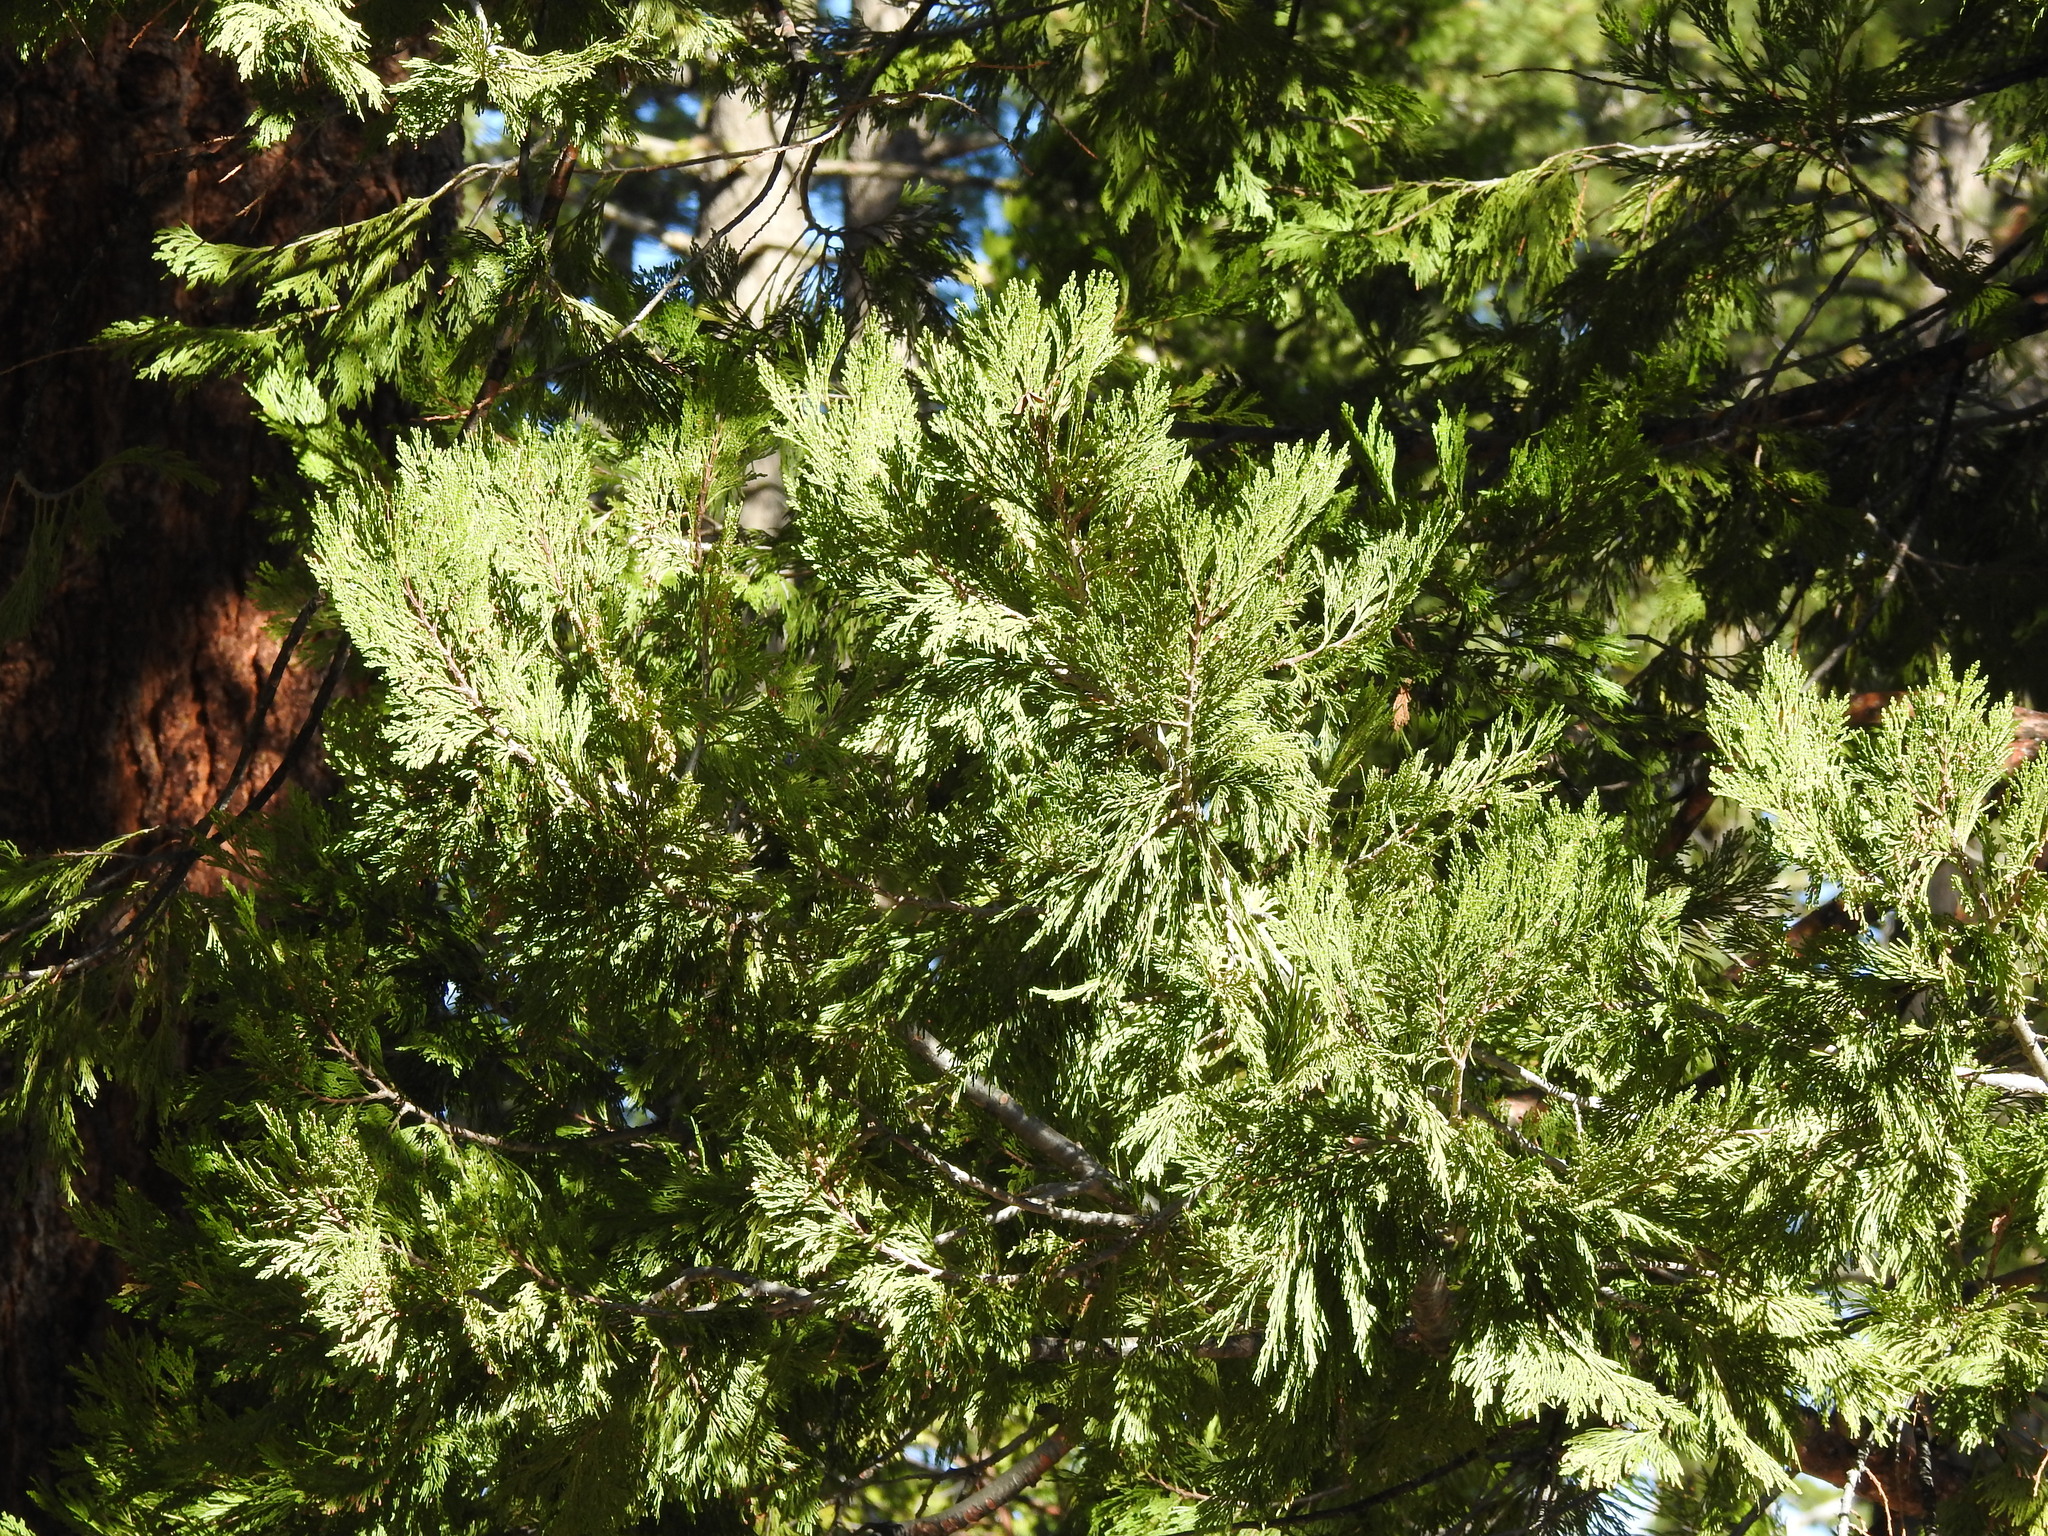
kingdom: Plantae
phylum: Tracheophyta
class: Pinopsida
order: Pinales
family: Cupressaceae
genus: Calocedrus
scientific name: Calocedrus decurrens
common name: Californian incense-cedar
